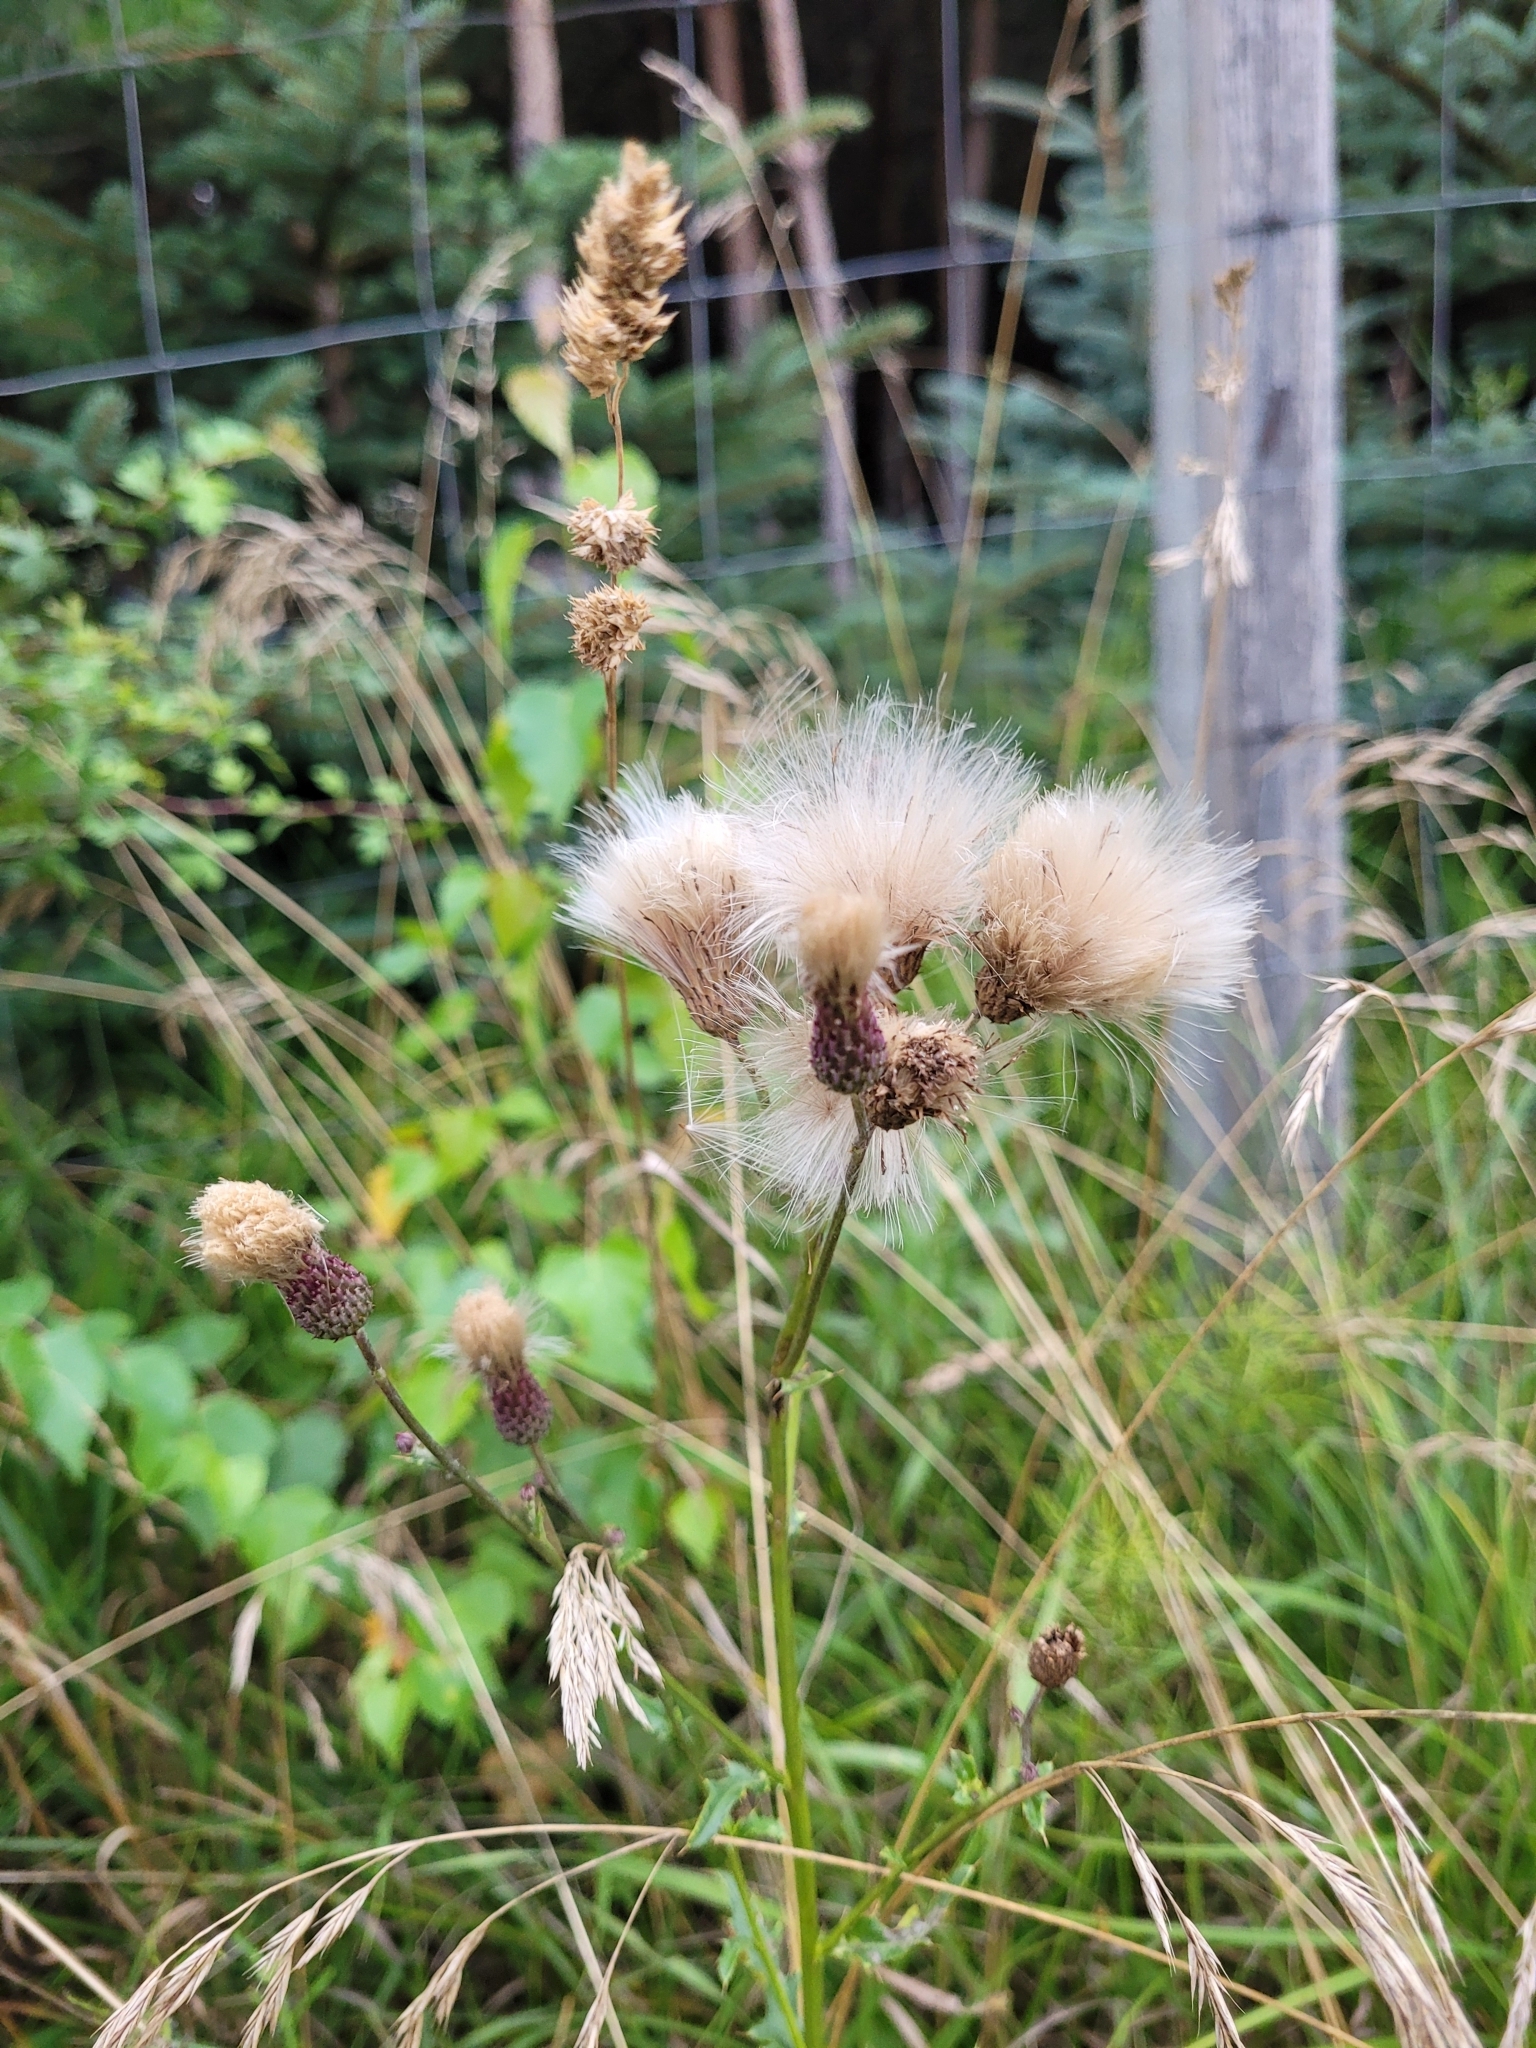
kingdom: Plantae
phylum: Tracheophyta
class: Magnoliopsida
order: Asterales
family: Asteraceae
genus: Cirsium
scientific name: Cirsium arvense
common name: Creeping thistle
